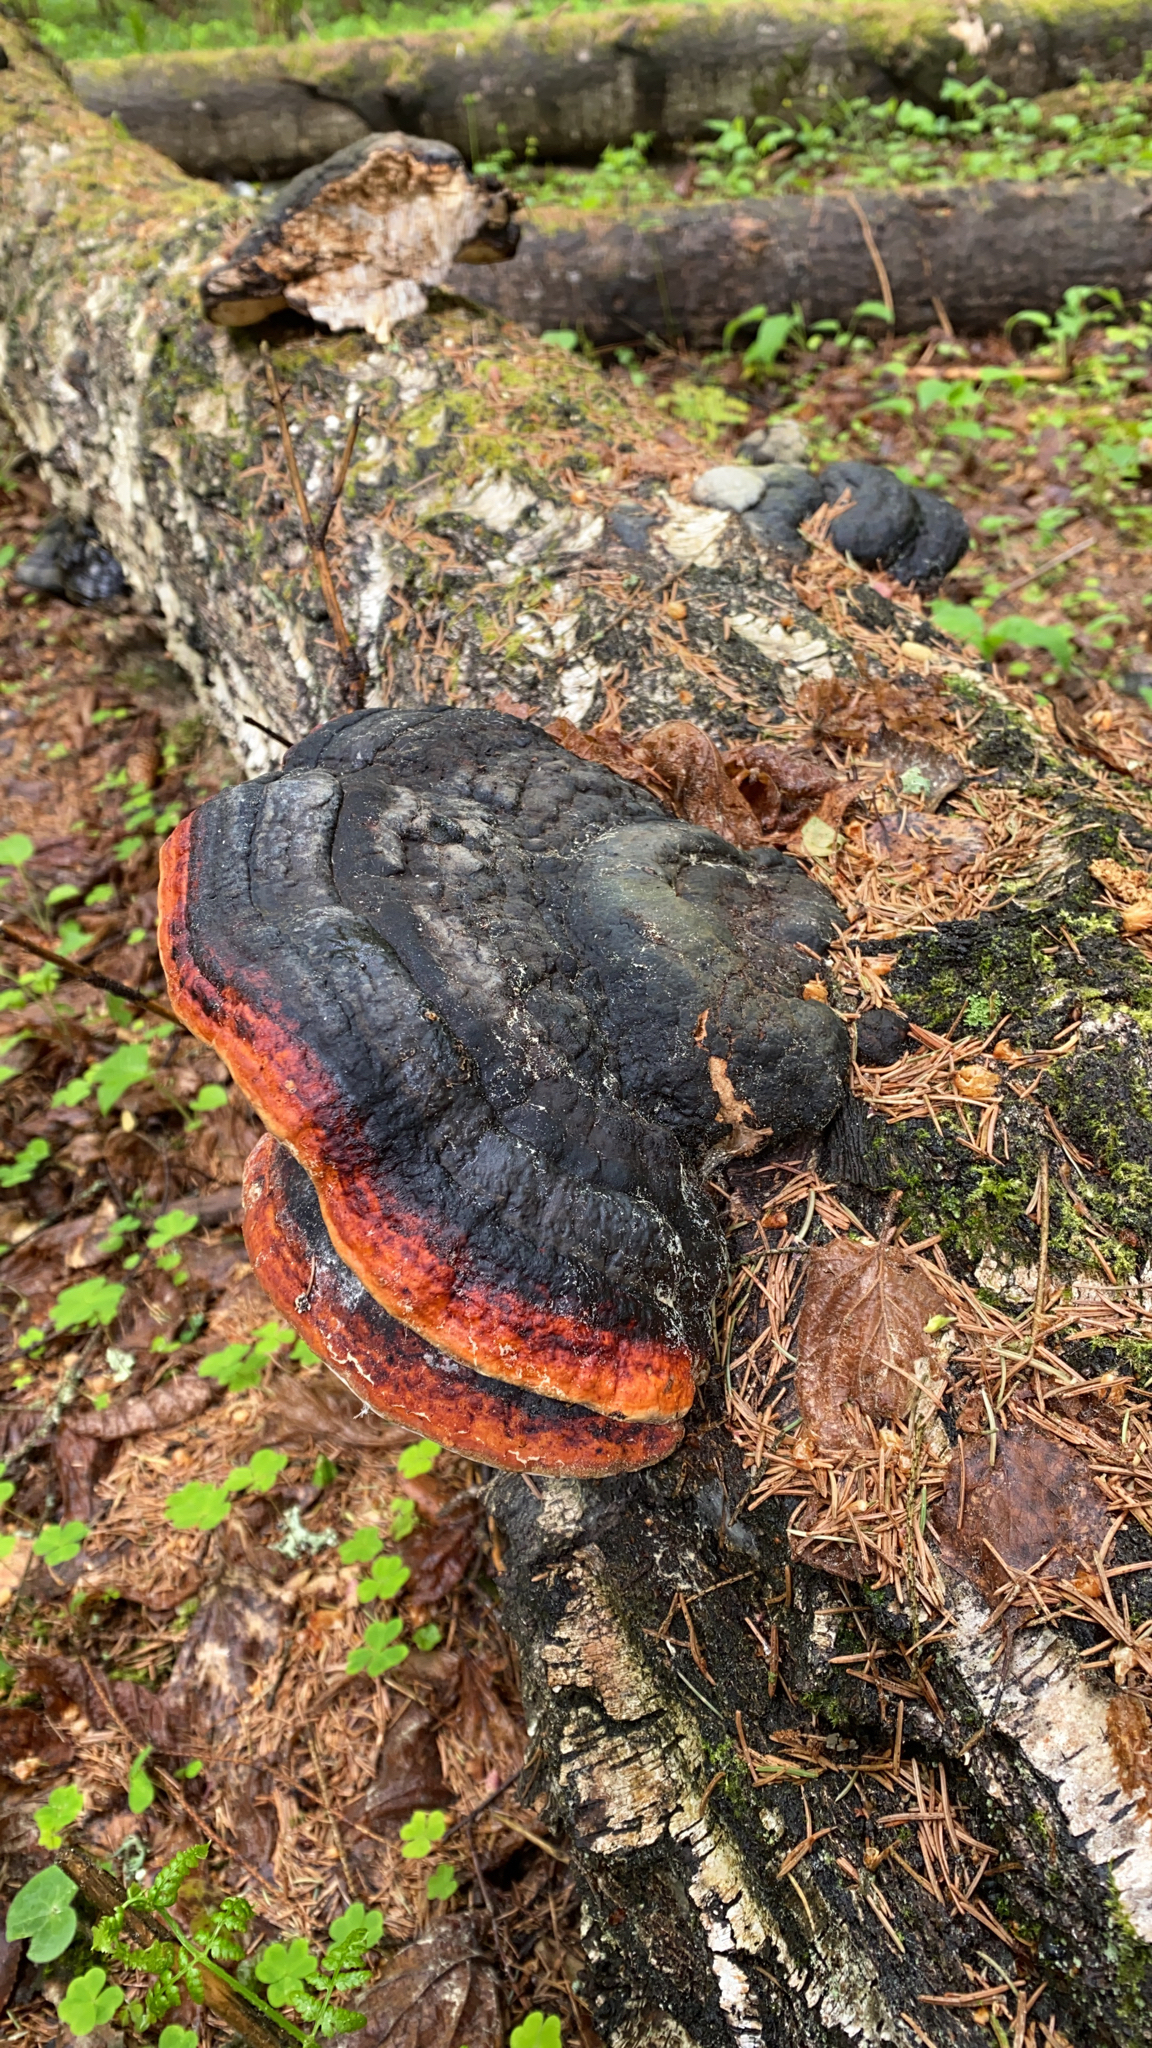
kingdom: Fungi
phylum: Basidiomycota
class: Agaricomycetes
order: Polyporales
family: Fomitopsidaceae
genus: Fomitopsis
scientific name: Fomitopsis pinicola
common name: Red-belted bracket
